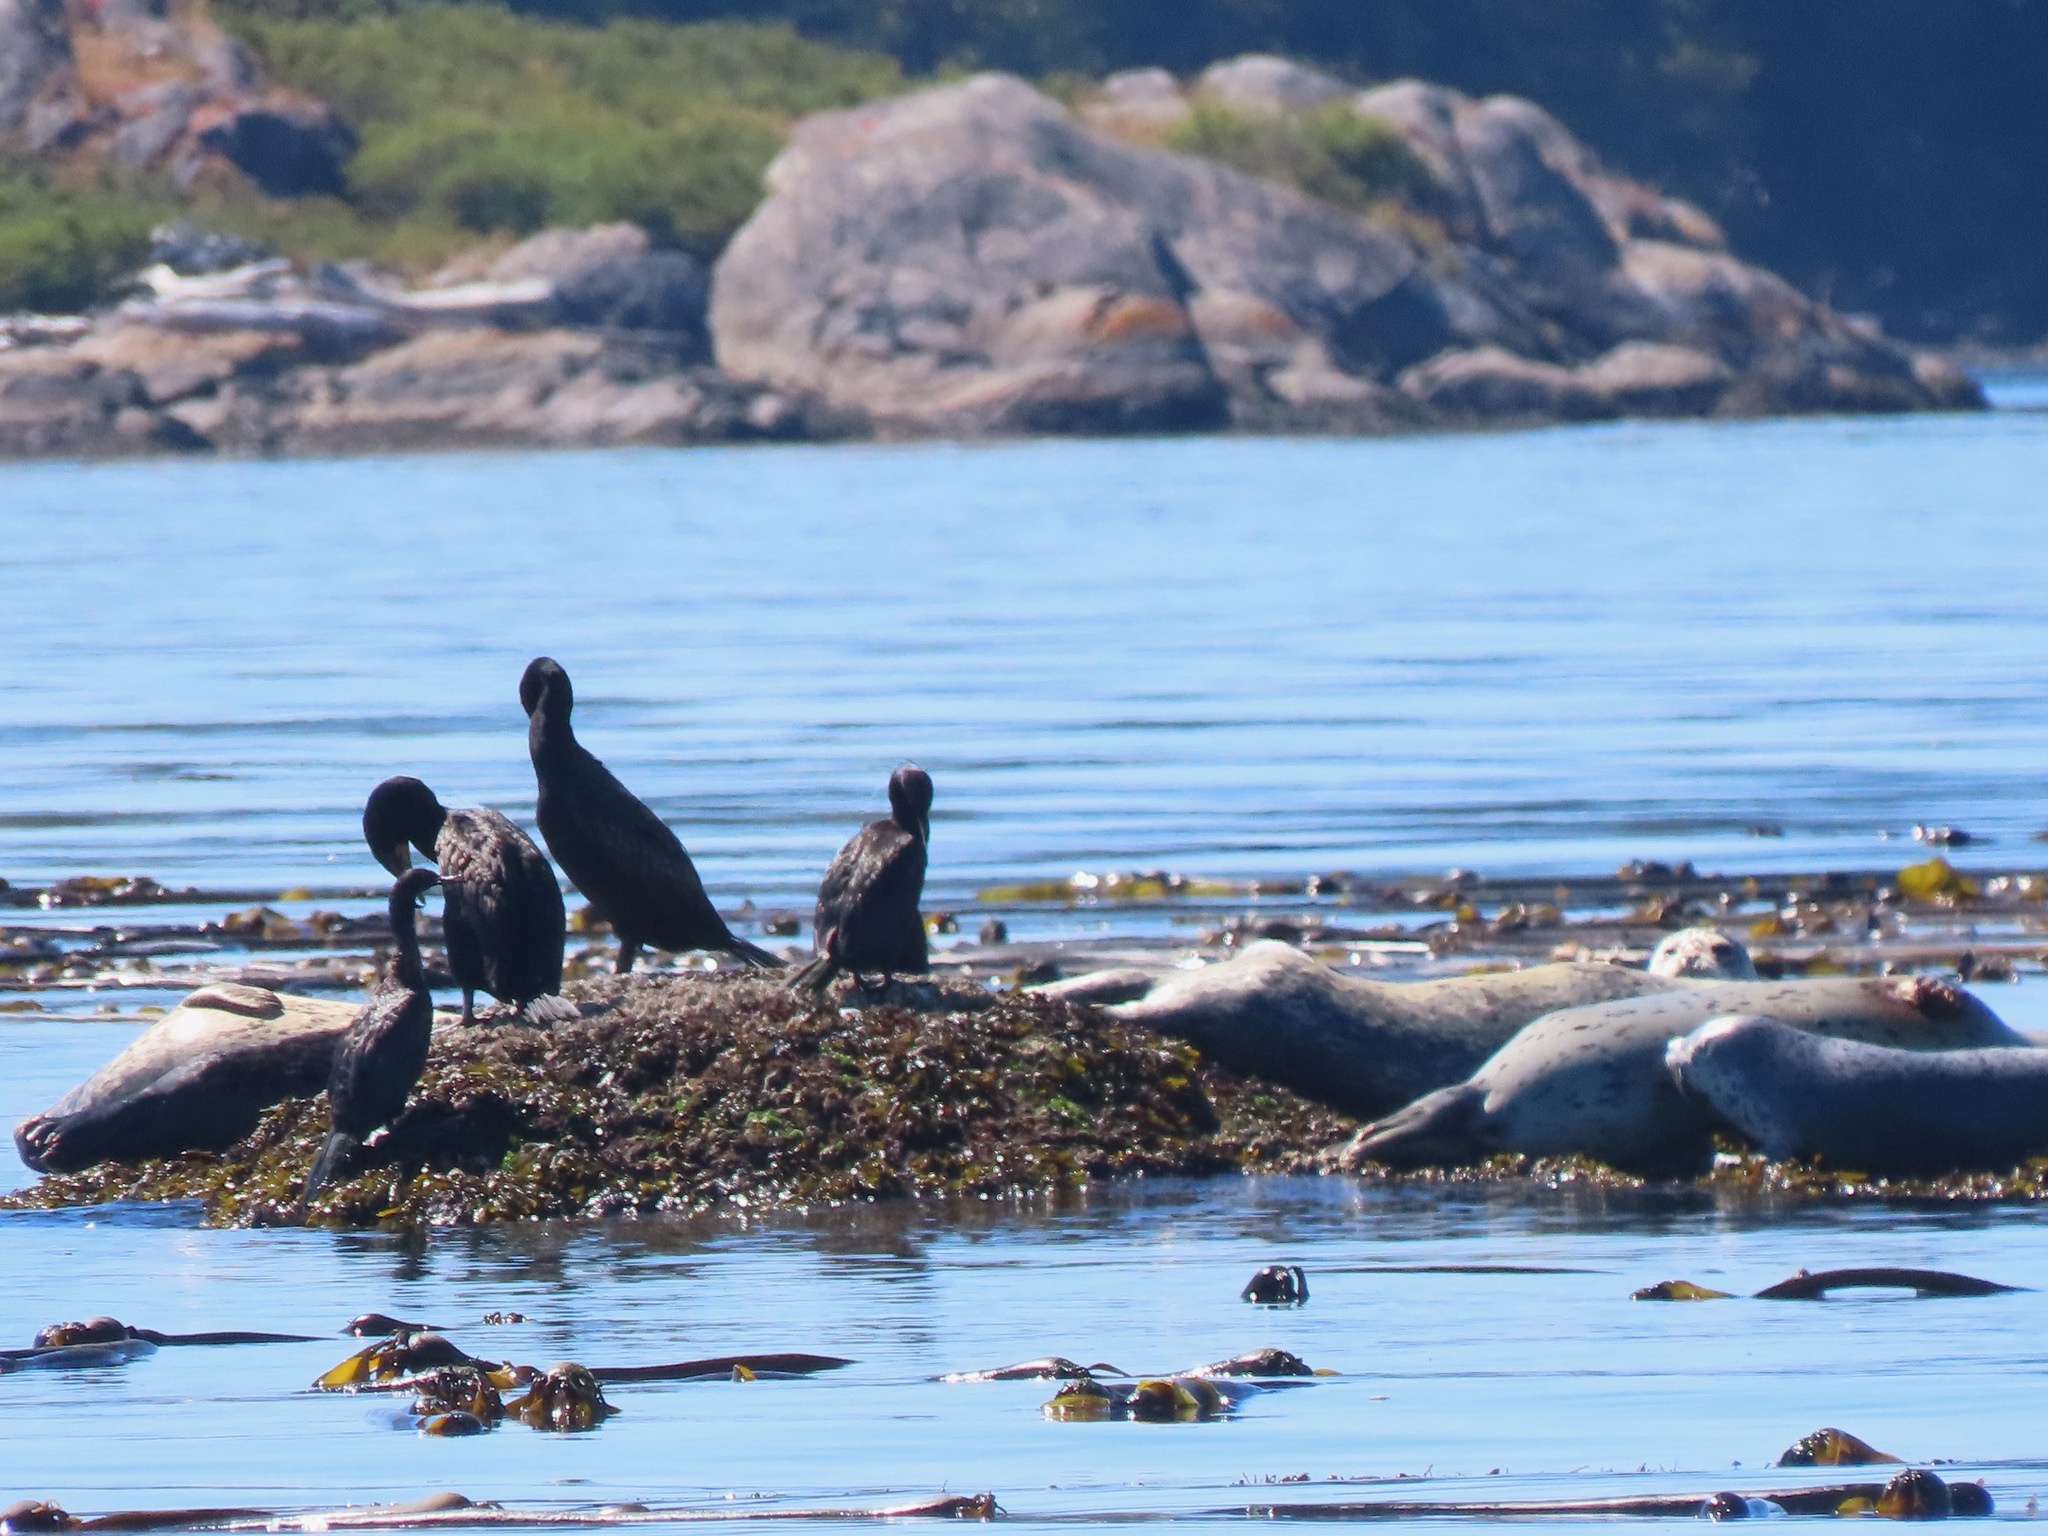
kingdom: Animalia
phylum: Chordata
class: Mammalia
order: Carnivora
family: Phocidae
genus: Phoca
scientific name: Phoca vitulina
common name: Harbor seal
